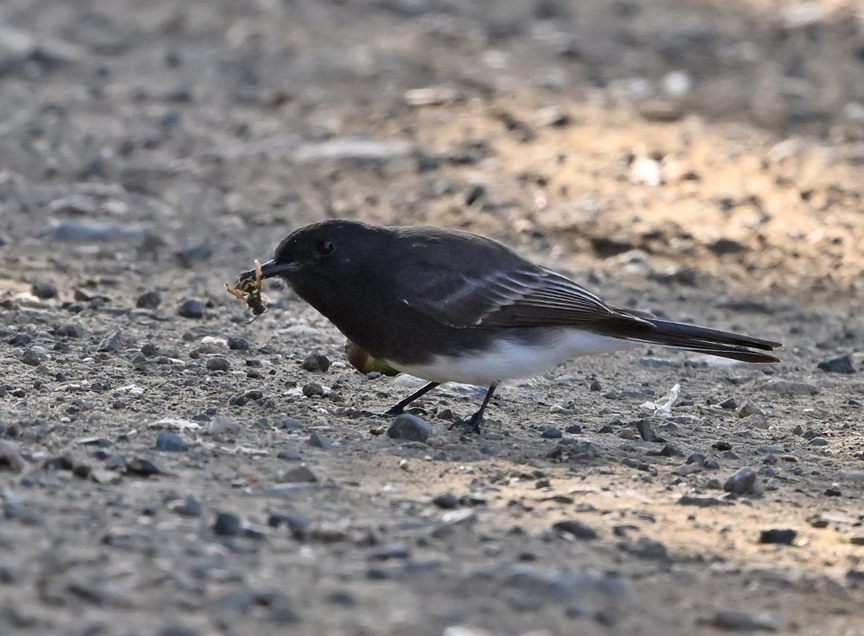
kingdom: Animalia
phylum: Chordata
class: Aves
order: Passeriformes
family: Tyrannidae
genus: Sayornis
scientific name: Sayornis nigricans
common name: Black phoebe
